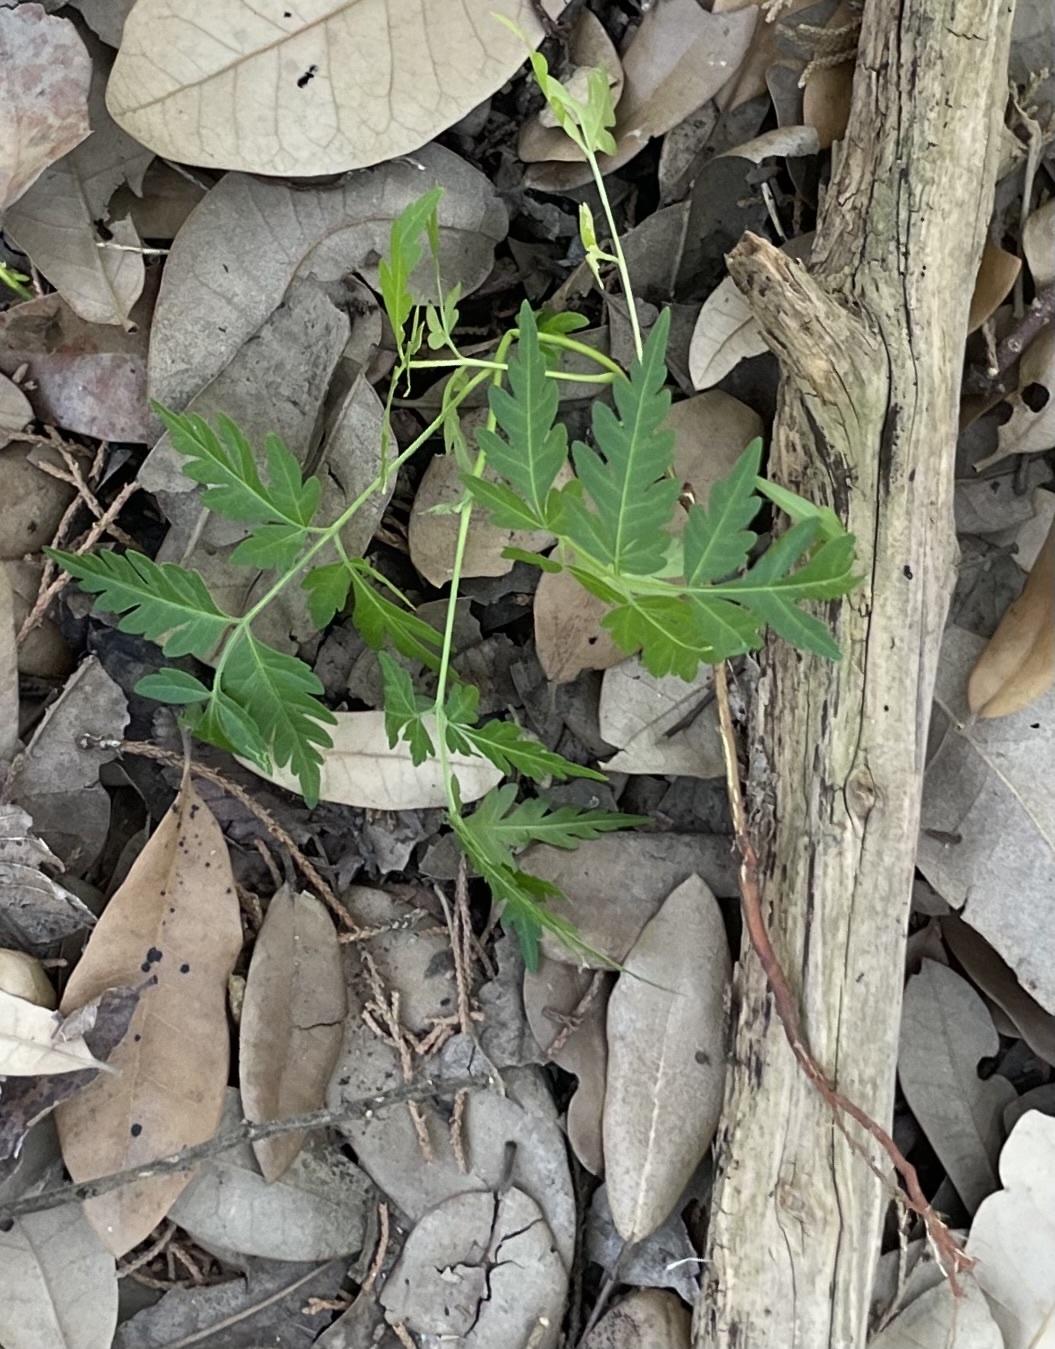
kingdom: Plantae
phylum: Tracheophyta
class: Magnoliopsida
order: Sapindales
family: Meliaceae
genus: Melia
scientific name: Melia azedarach
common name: Chinaberrytree
